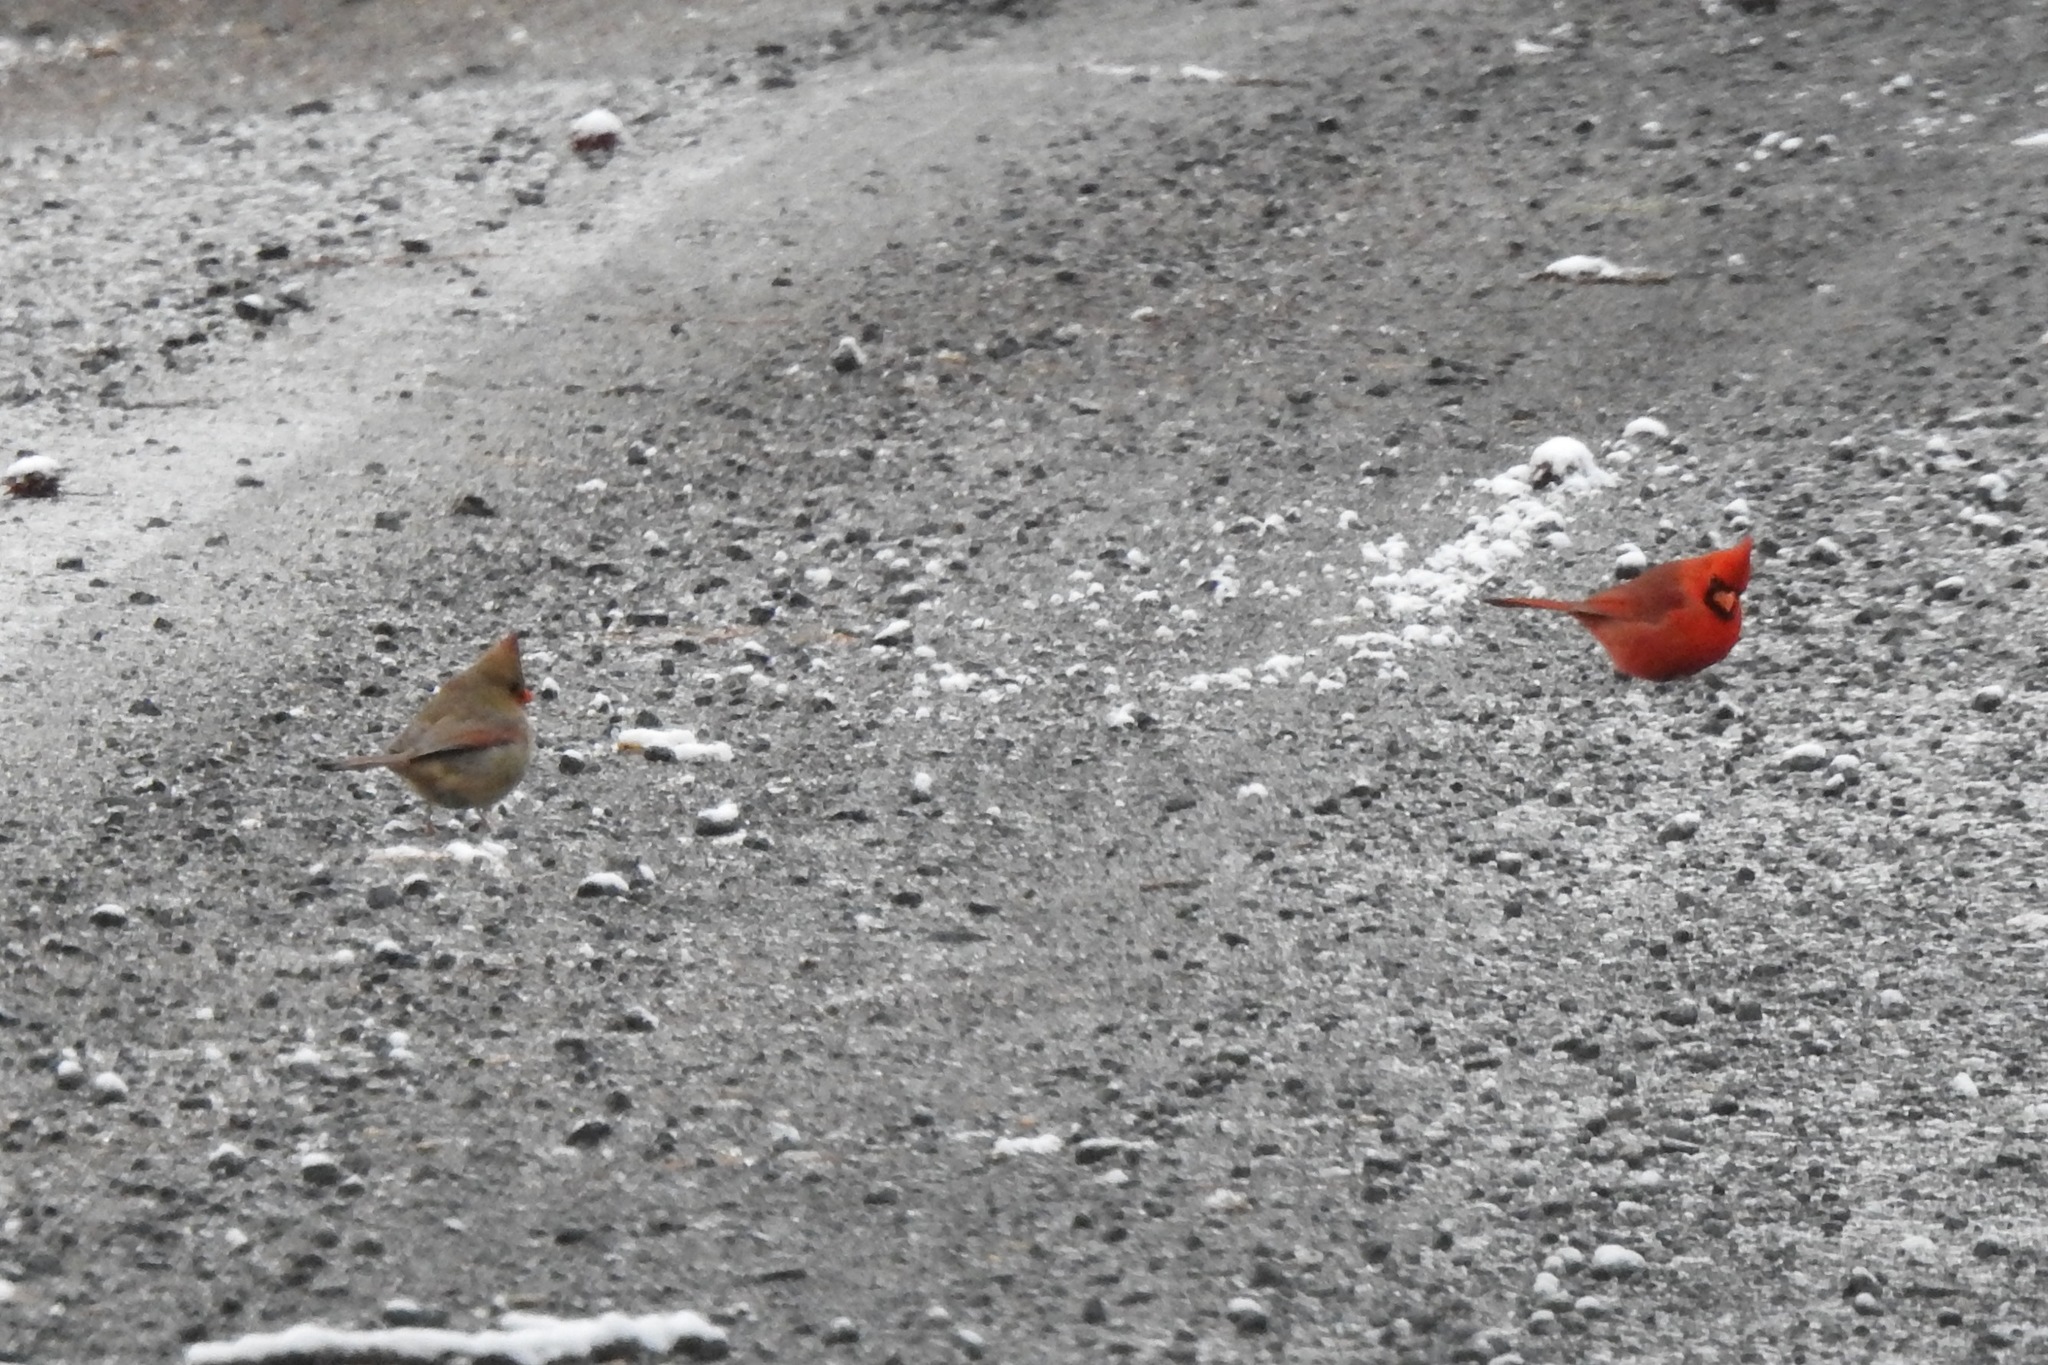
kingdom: Animalia
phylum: Chordata
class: Aves
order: Passeriformes
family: Cardinalidae
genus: Cardinalis
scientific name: Cardinalis cardinalis
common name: Northern cardinal
